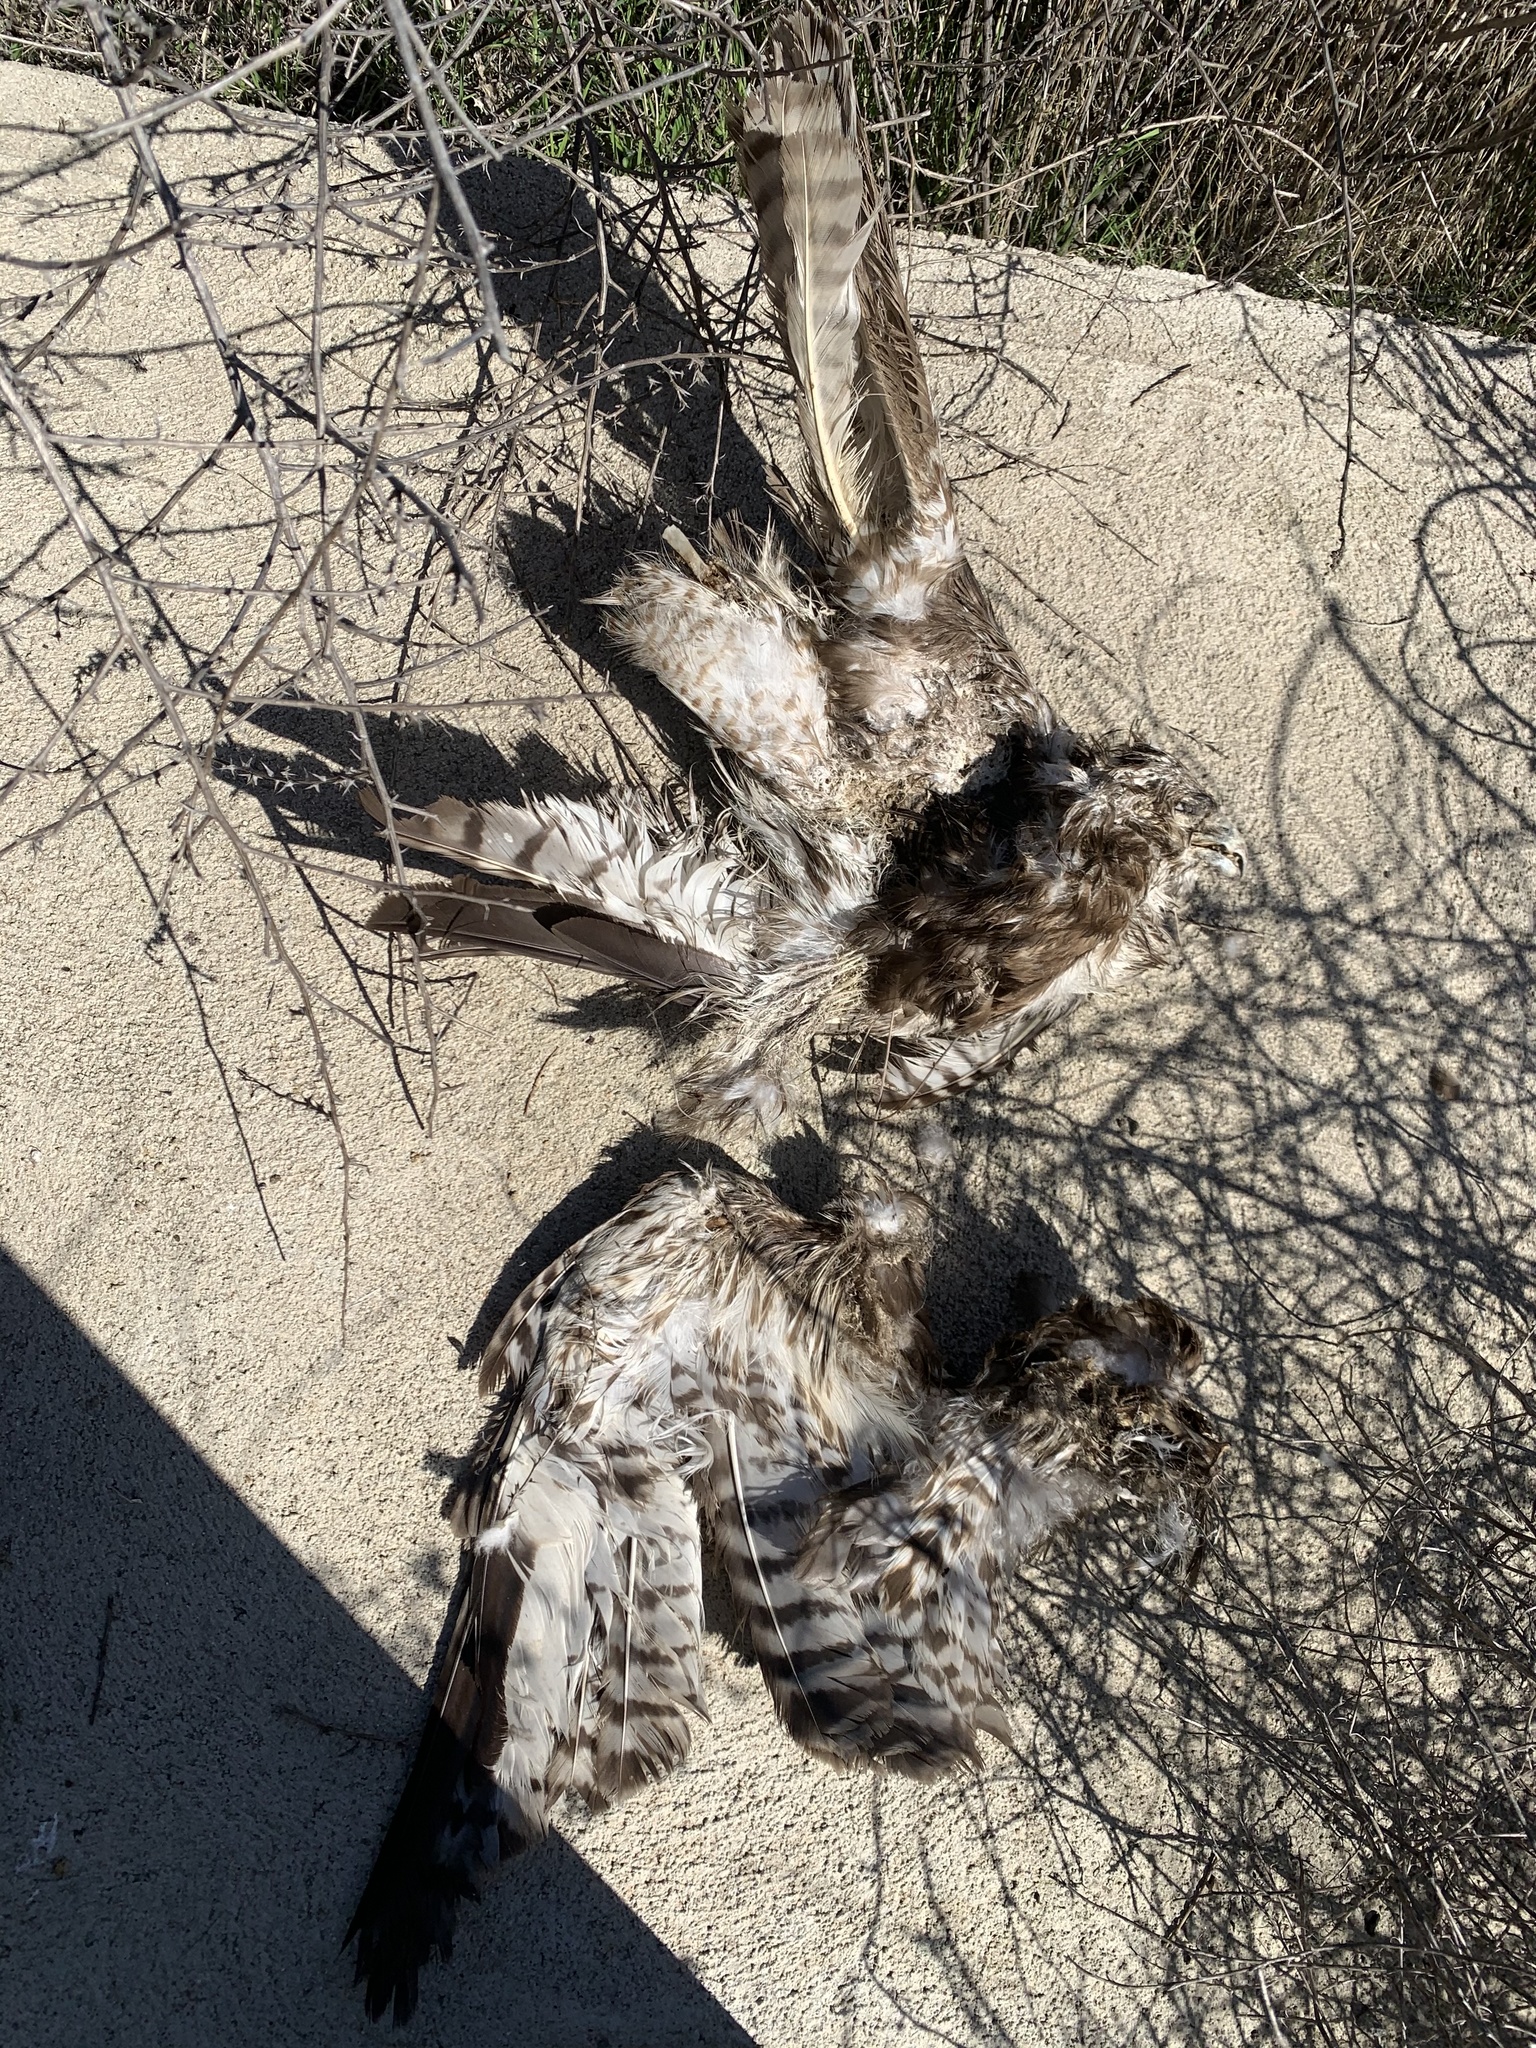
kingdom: Animalia
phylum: Chordata
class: Aves
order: Accipitriformes
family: Accipitridae
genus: Buteo
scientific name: Buteo lineatus
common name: Red-shouldered hawk
